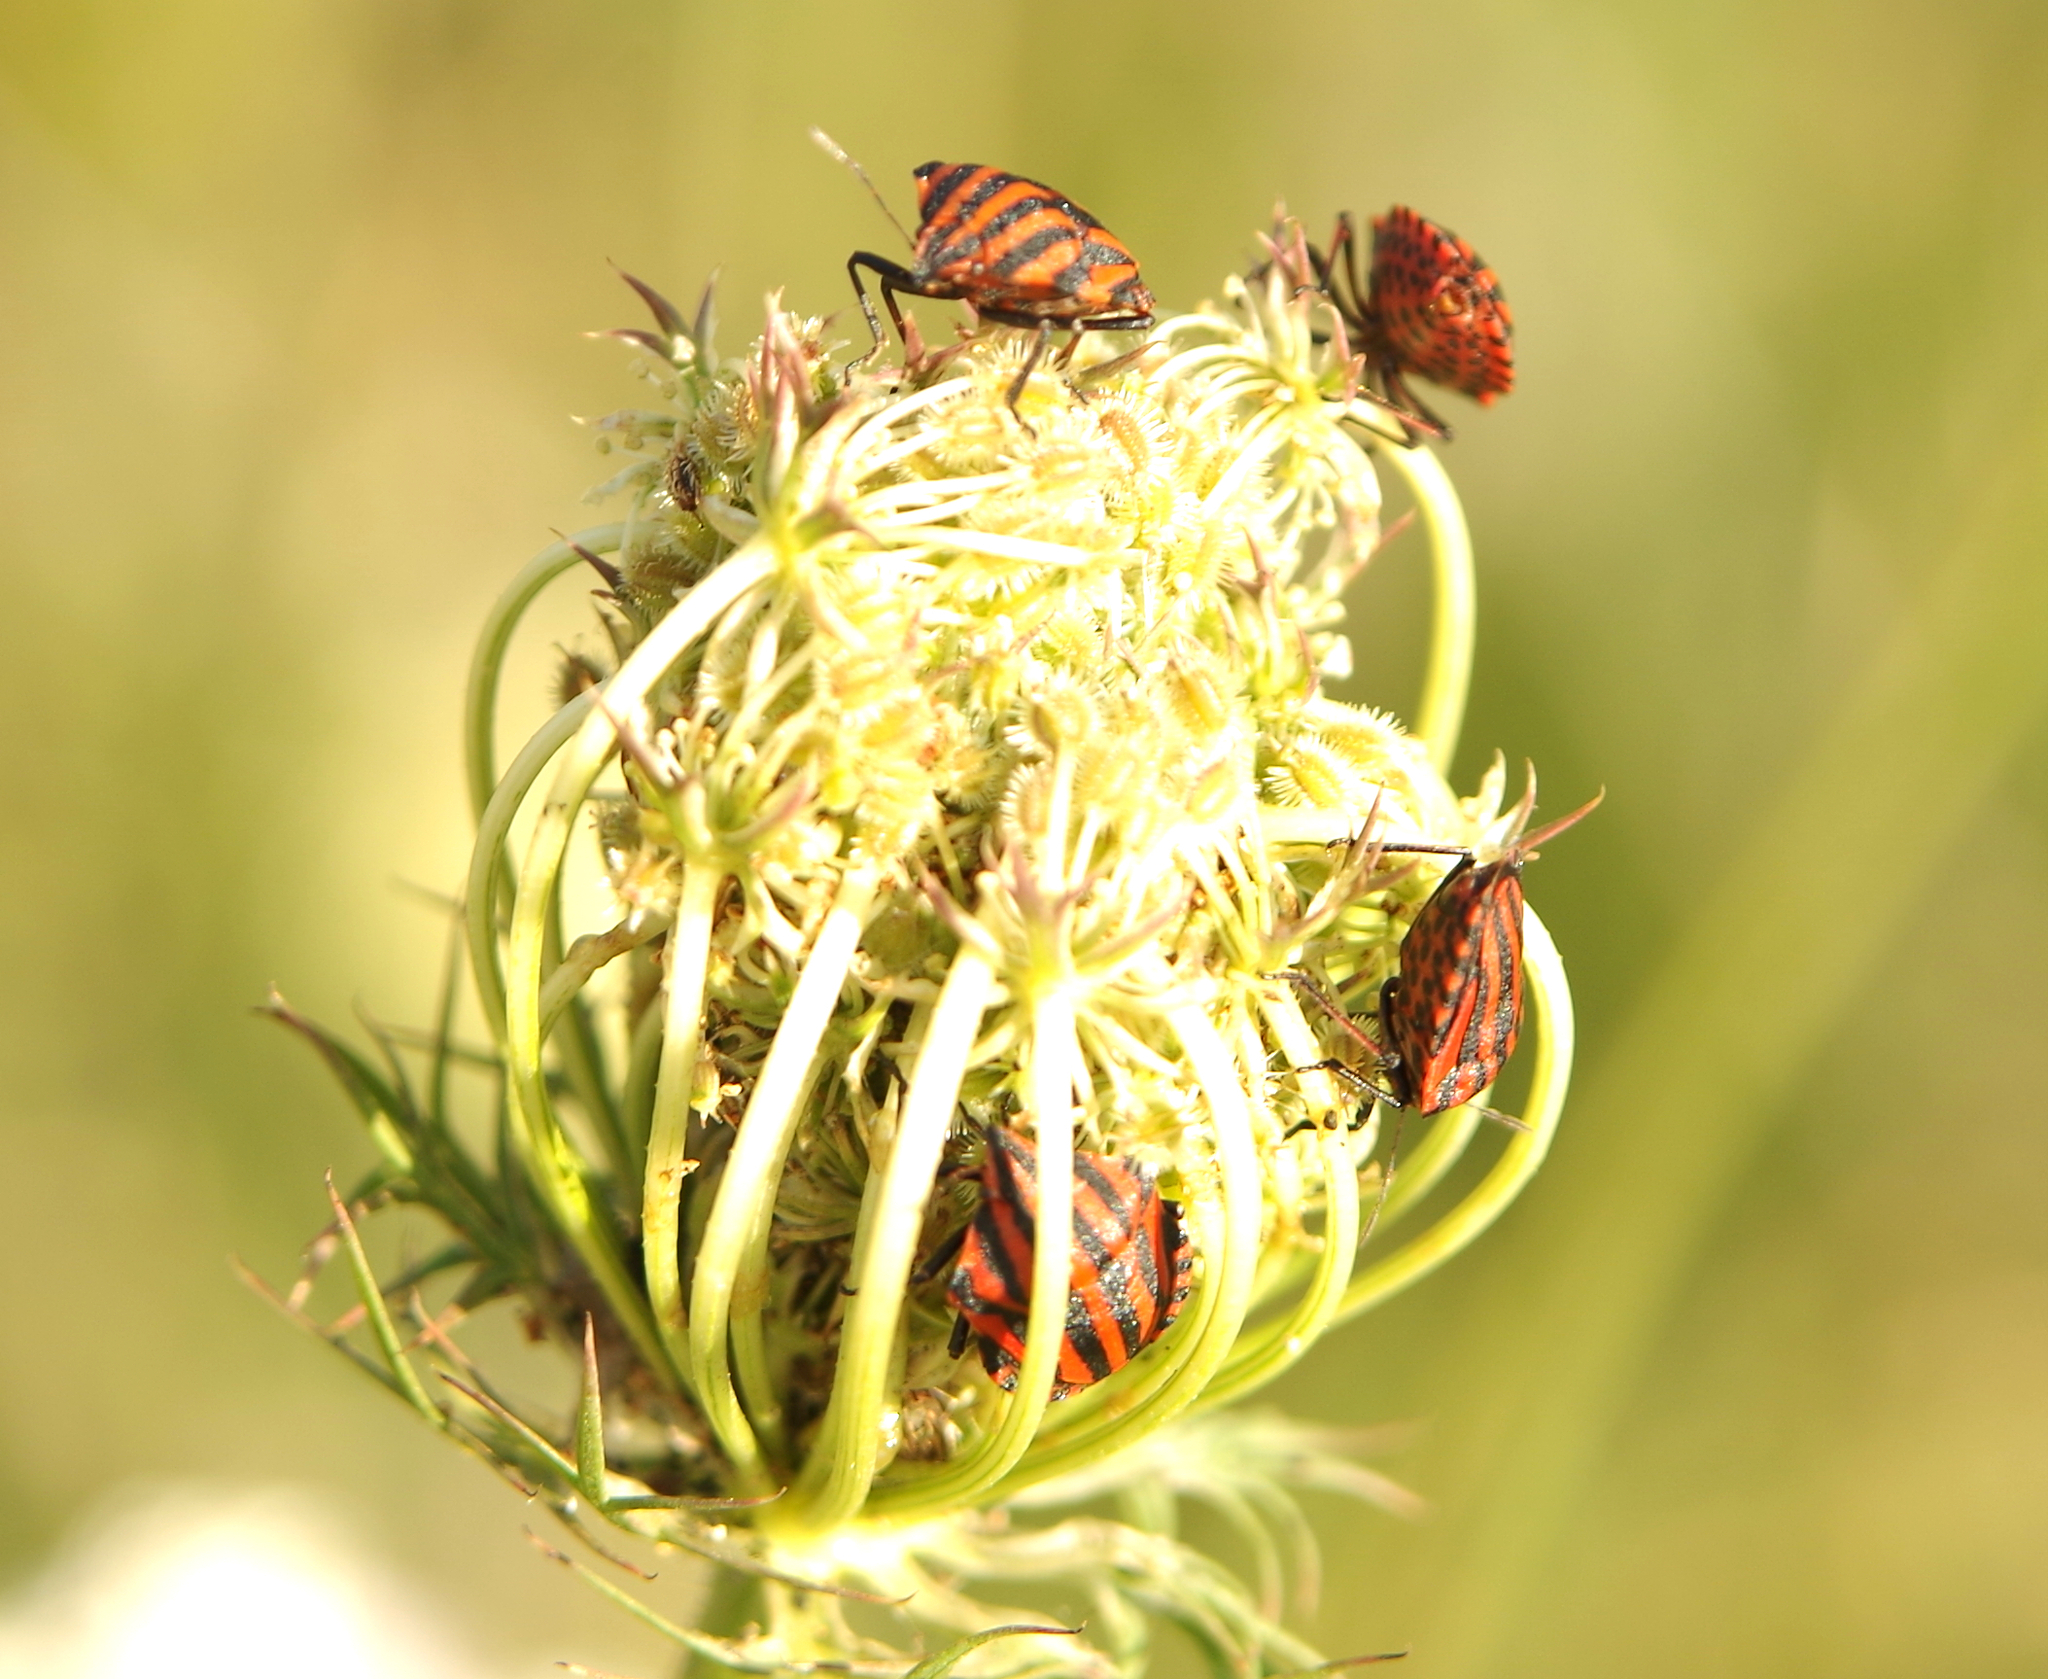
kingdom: Animalia
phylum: Arthropoda
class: Insecta
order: Hemiptera
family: Pentatomidae
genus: Graphosoma
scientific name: Graphosoma italicum
